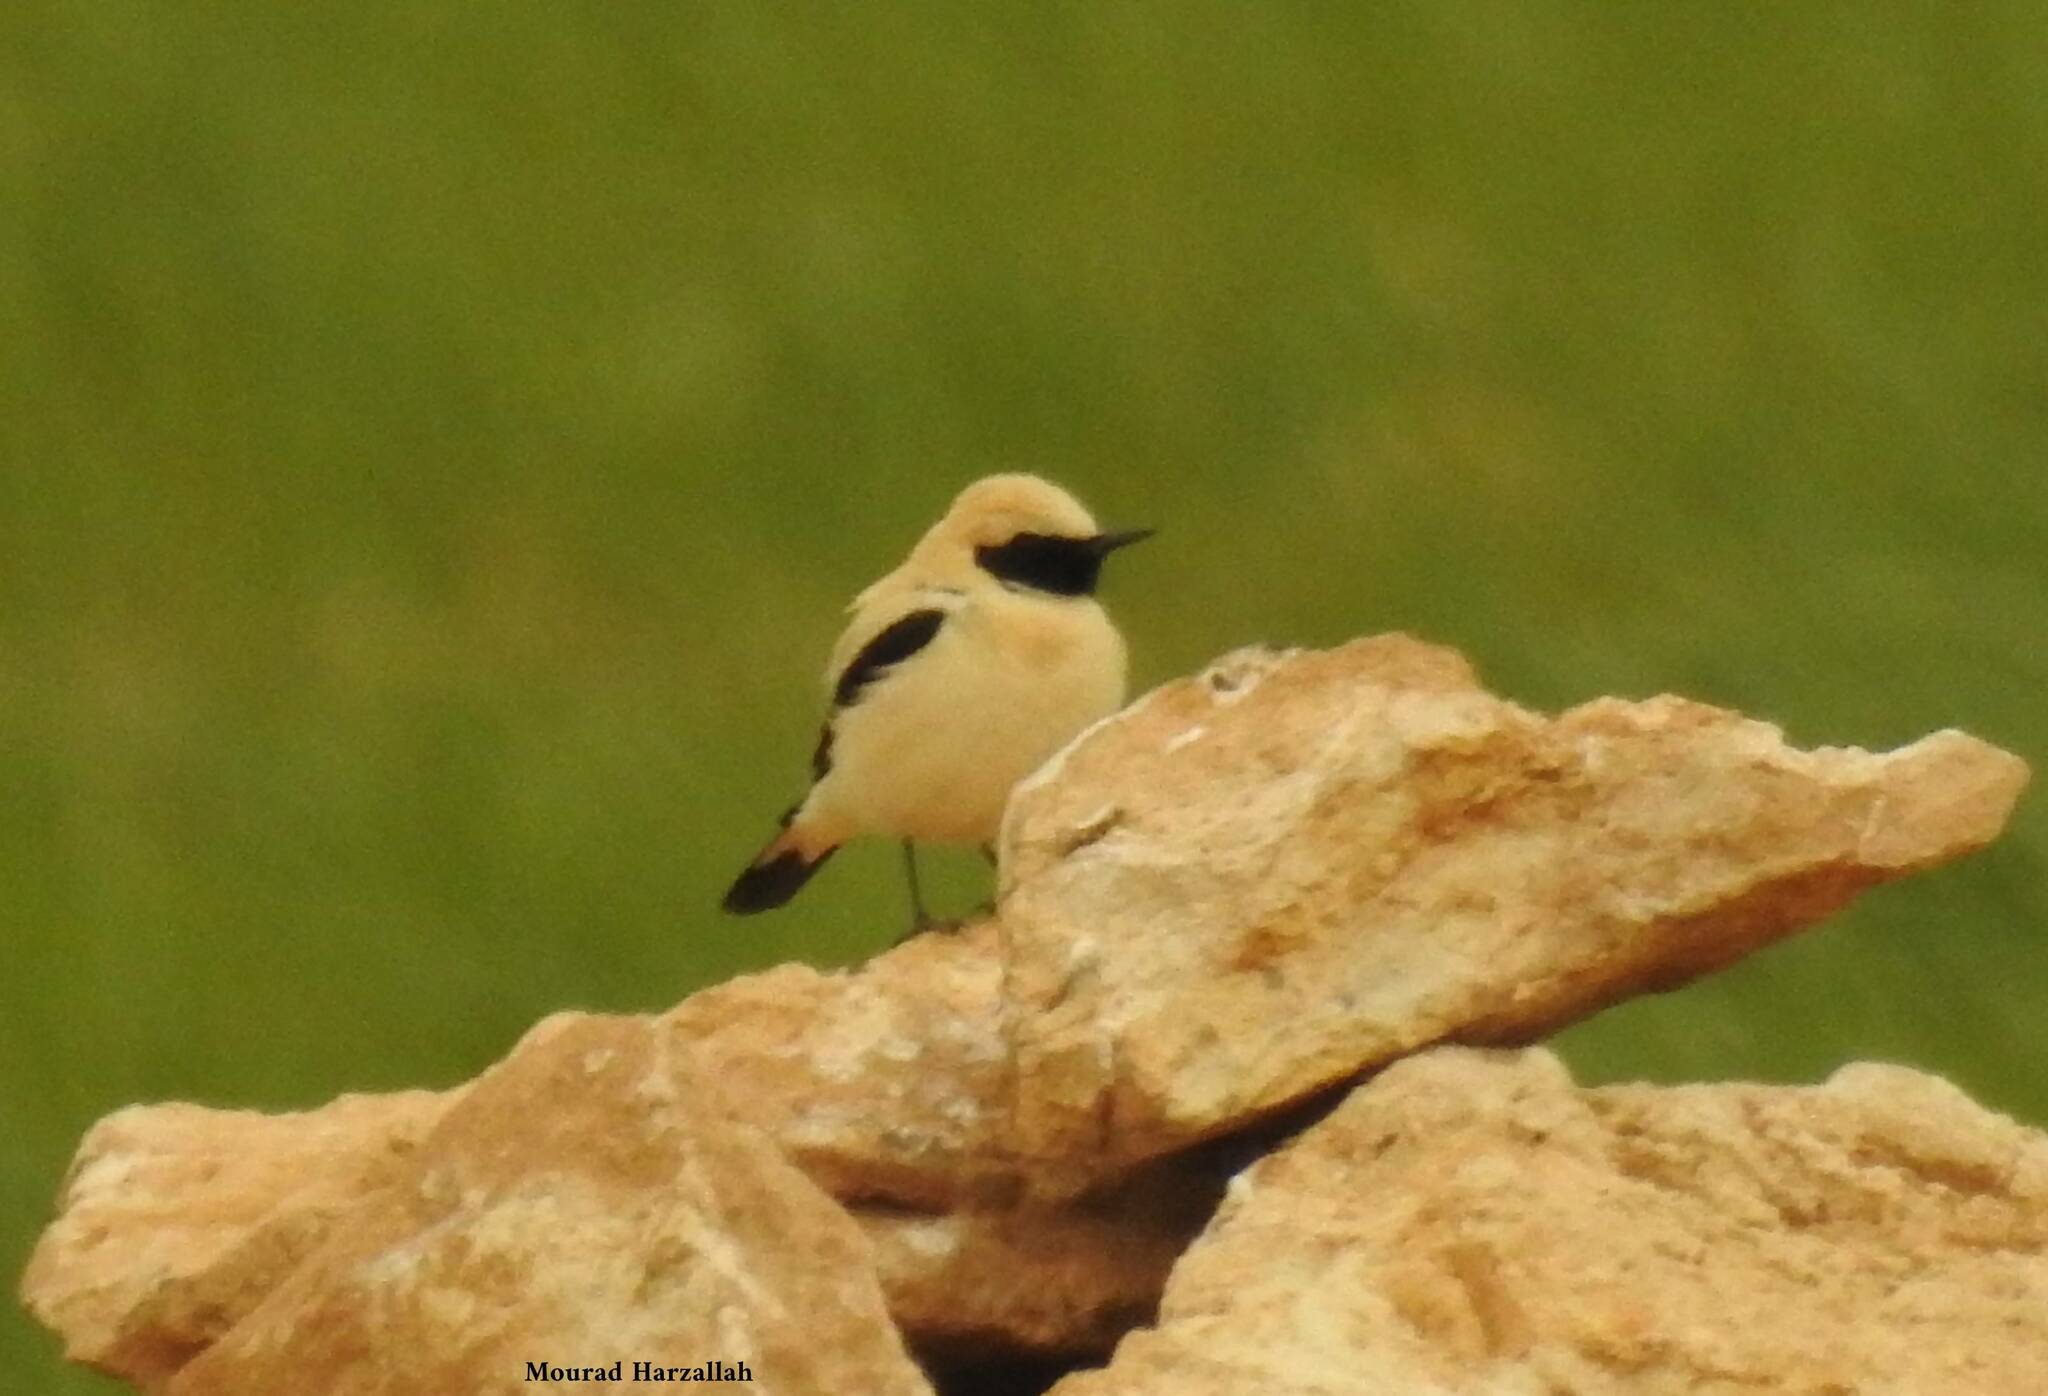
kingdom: Animalia
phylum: Chordata
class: Aves
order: Passeriformes
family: Muscicapidae
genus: Oenanthe
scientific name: Oenanthe hispanica
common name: Black-eared wheatear
